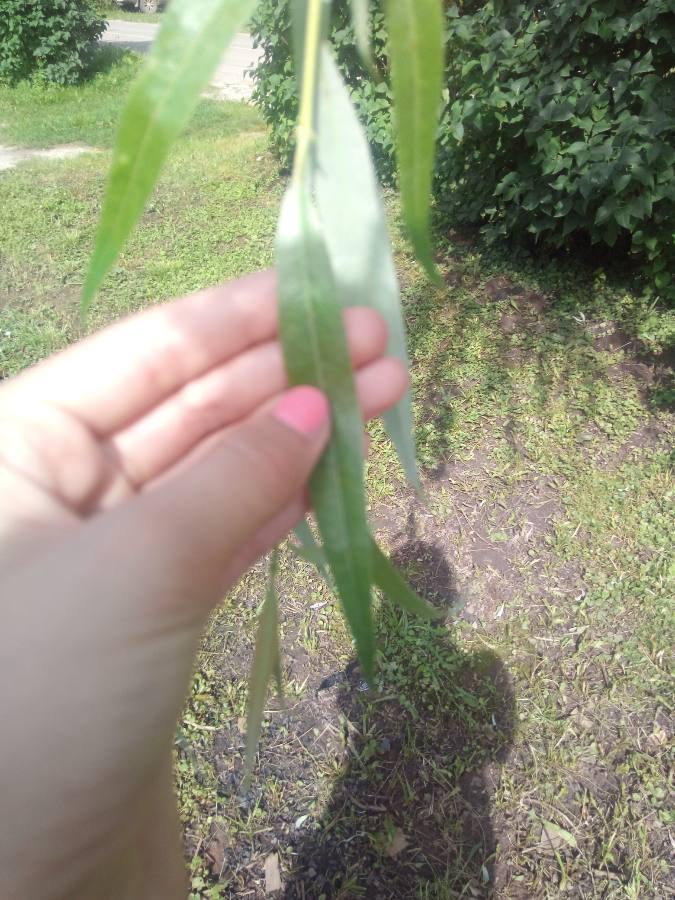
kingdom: Plantae
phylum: Tracheophyta
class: Magnoliopsida
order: Malpighiales
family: Salicaceae
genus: Salix
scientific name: Salix alba
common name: White willow
